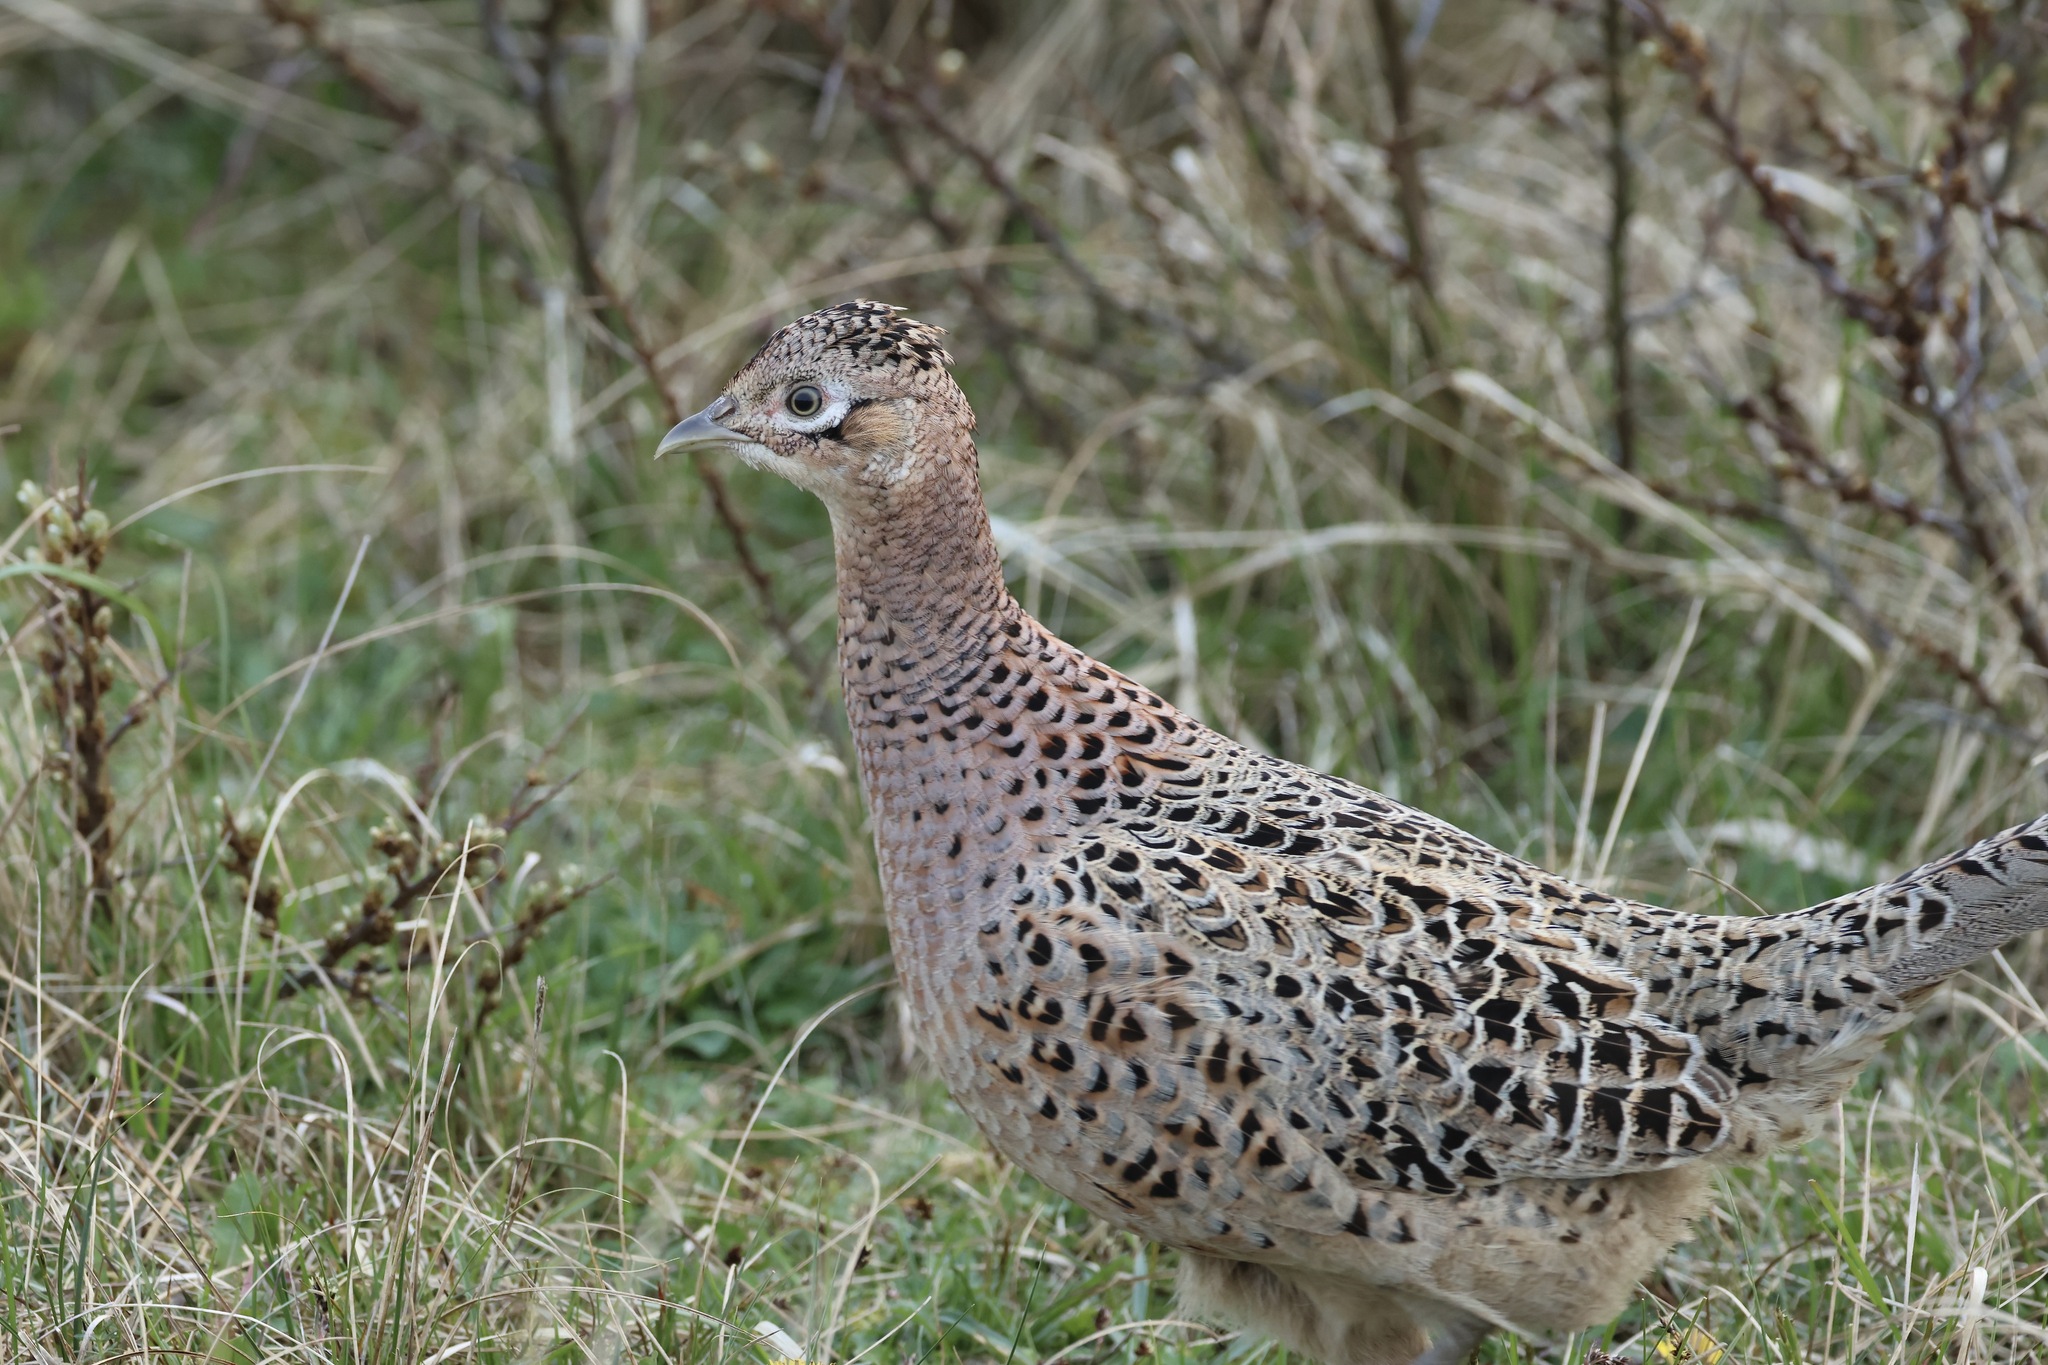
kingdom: Animalia
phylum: Chordata
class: Aves
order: Galliformes
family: Phasianidae
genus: Phasianus
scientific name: Phasianus colchicus
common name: Common pheasant
